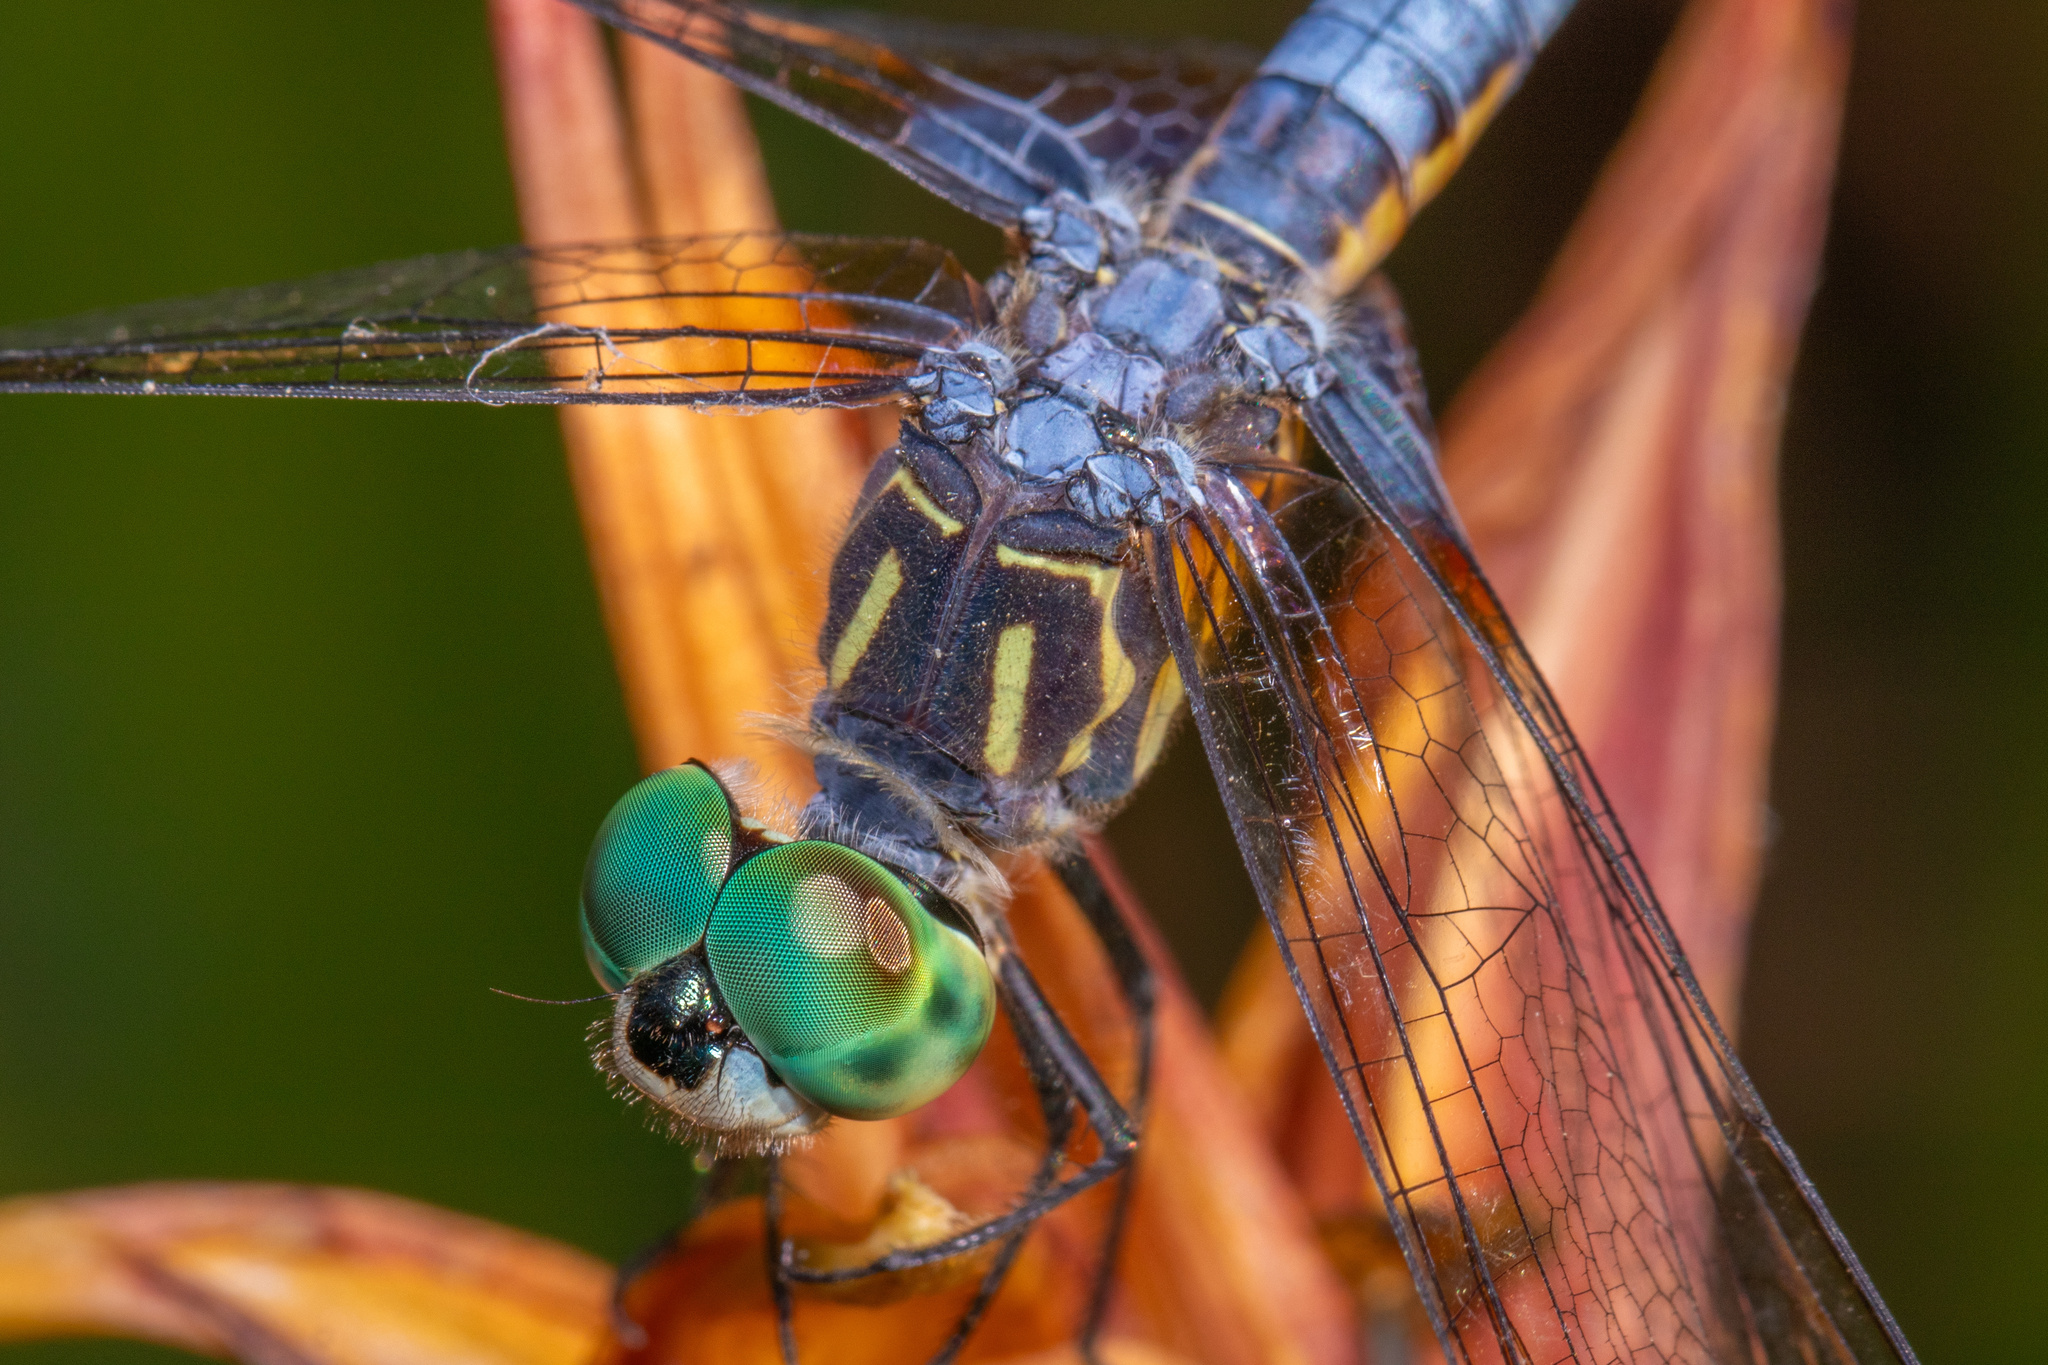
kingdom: Animalia
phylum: Arthropoda
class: Insecta
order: Odonata
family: Libellulidae
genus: Pachydiplax
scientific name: Pachydiplax longipennis
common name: Blue dasher
